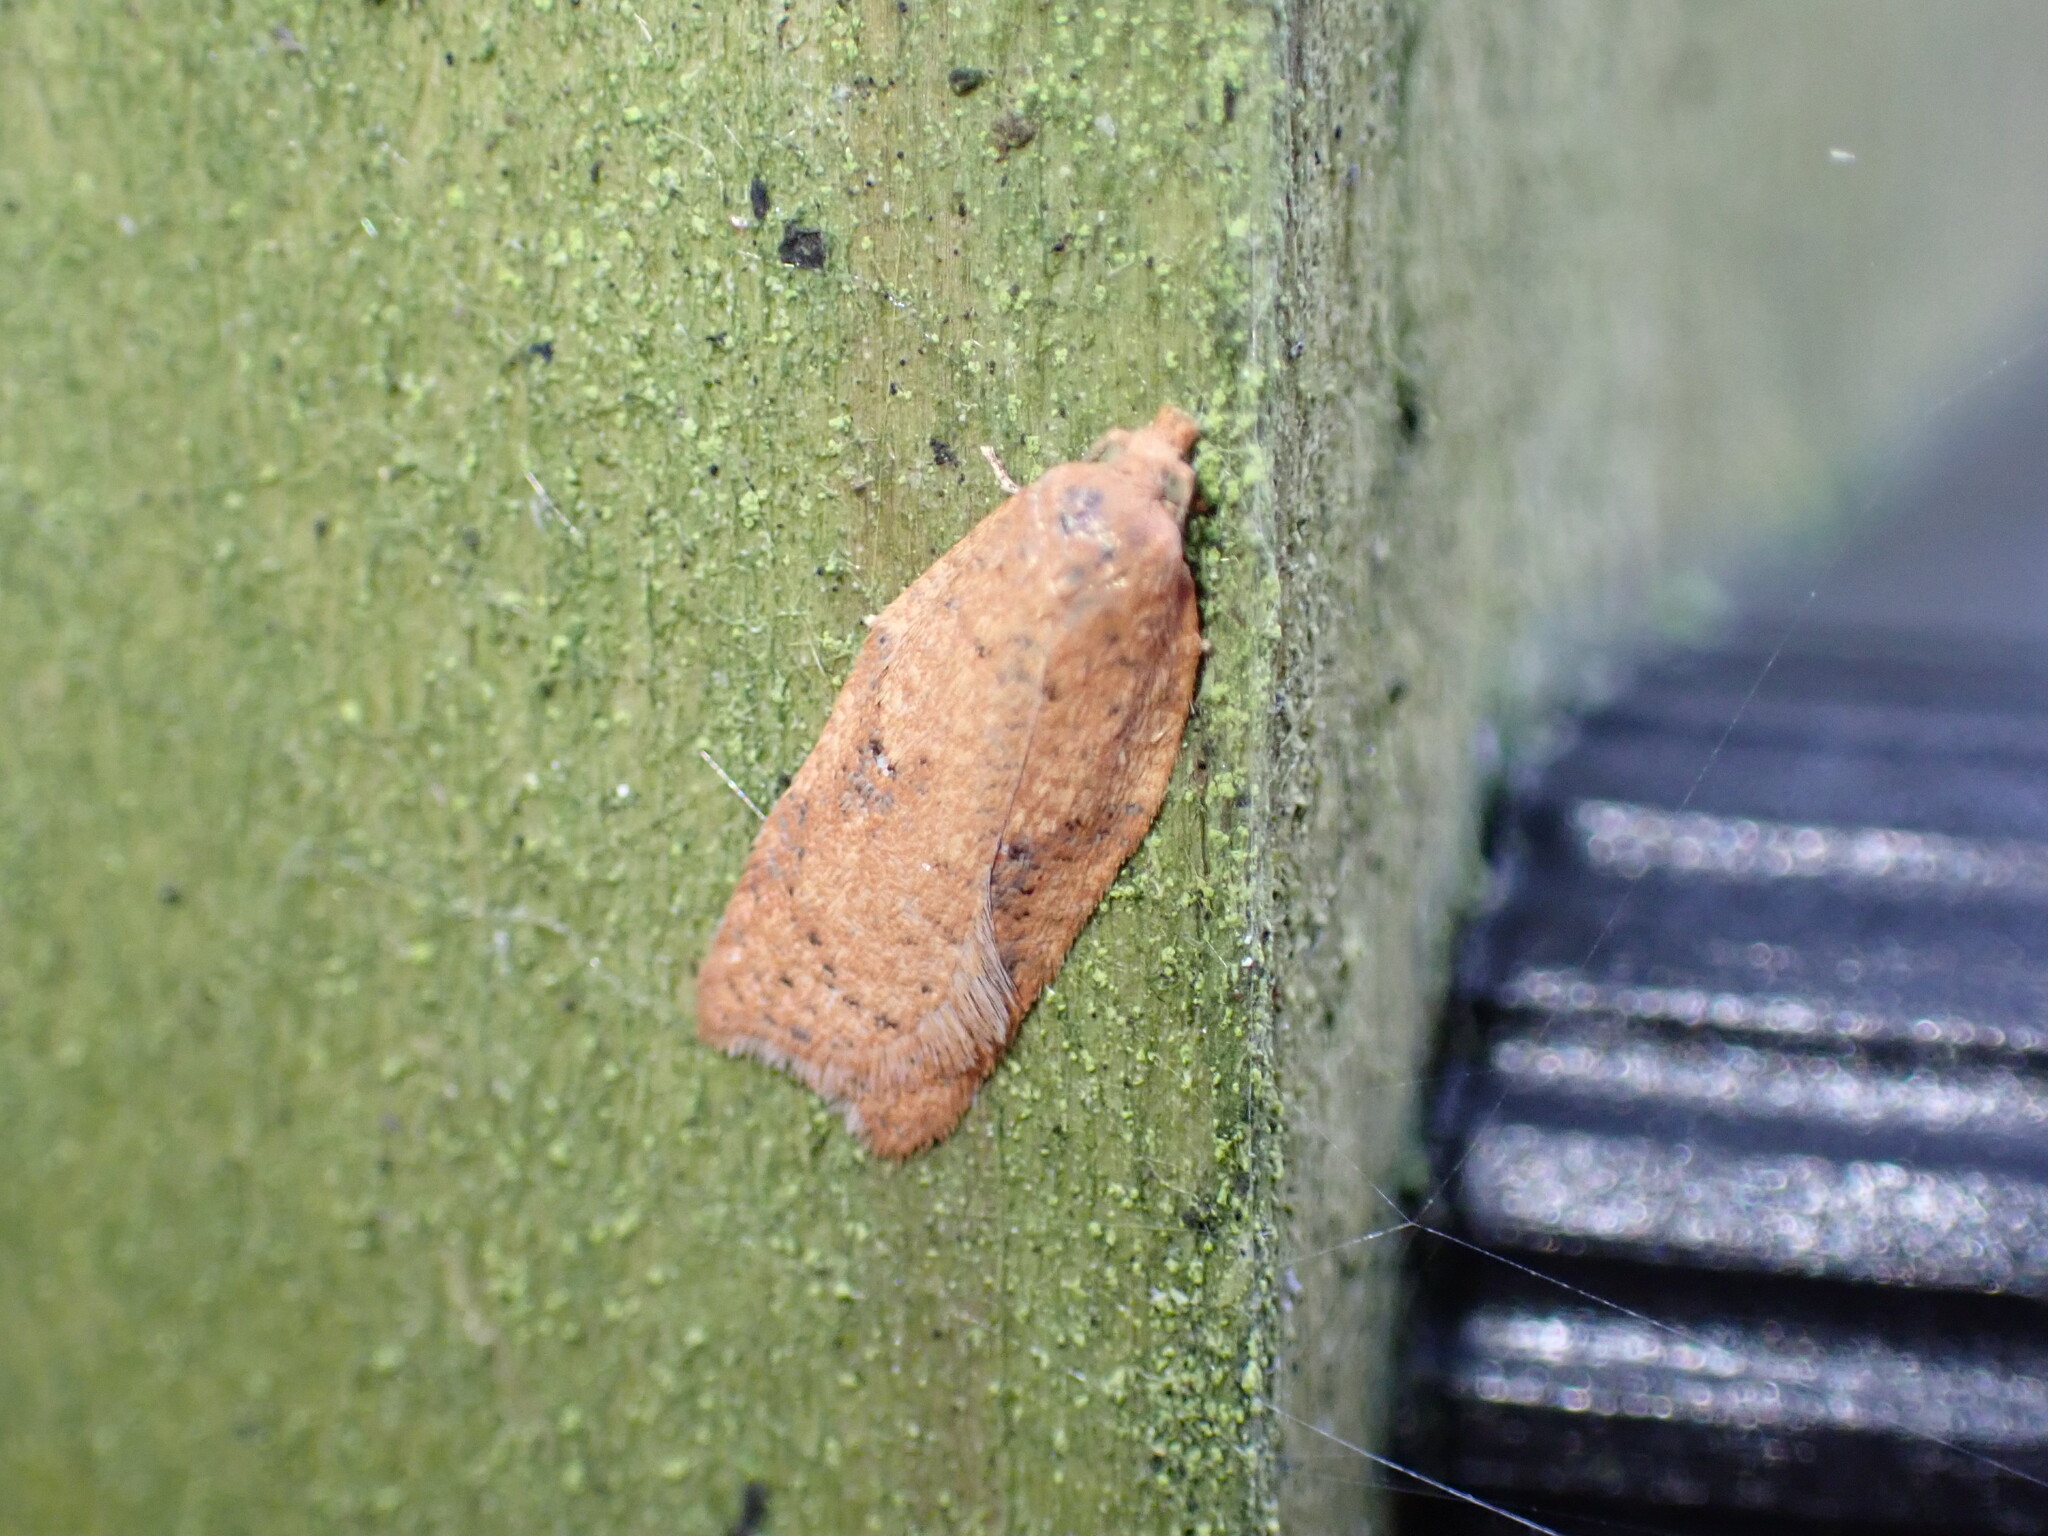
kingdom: Animalia
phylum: Arthropoda
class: Insecta
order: Lepidoptera
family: Tortricidae
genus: Acleris
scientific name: Acleris
